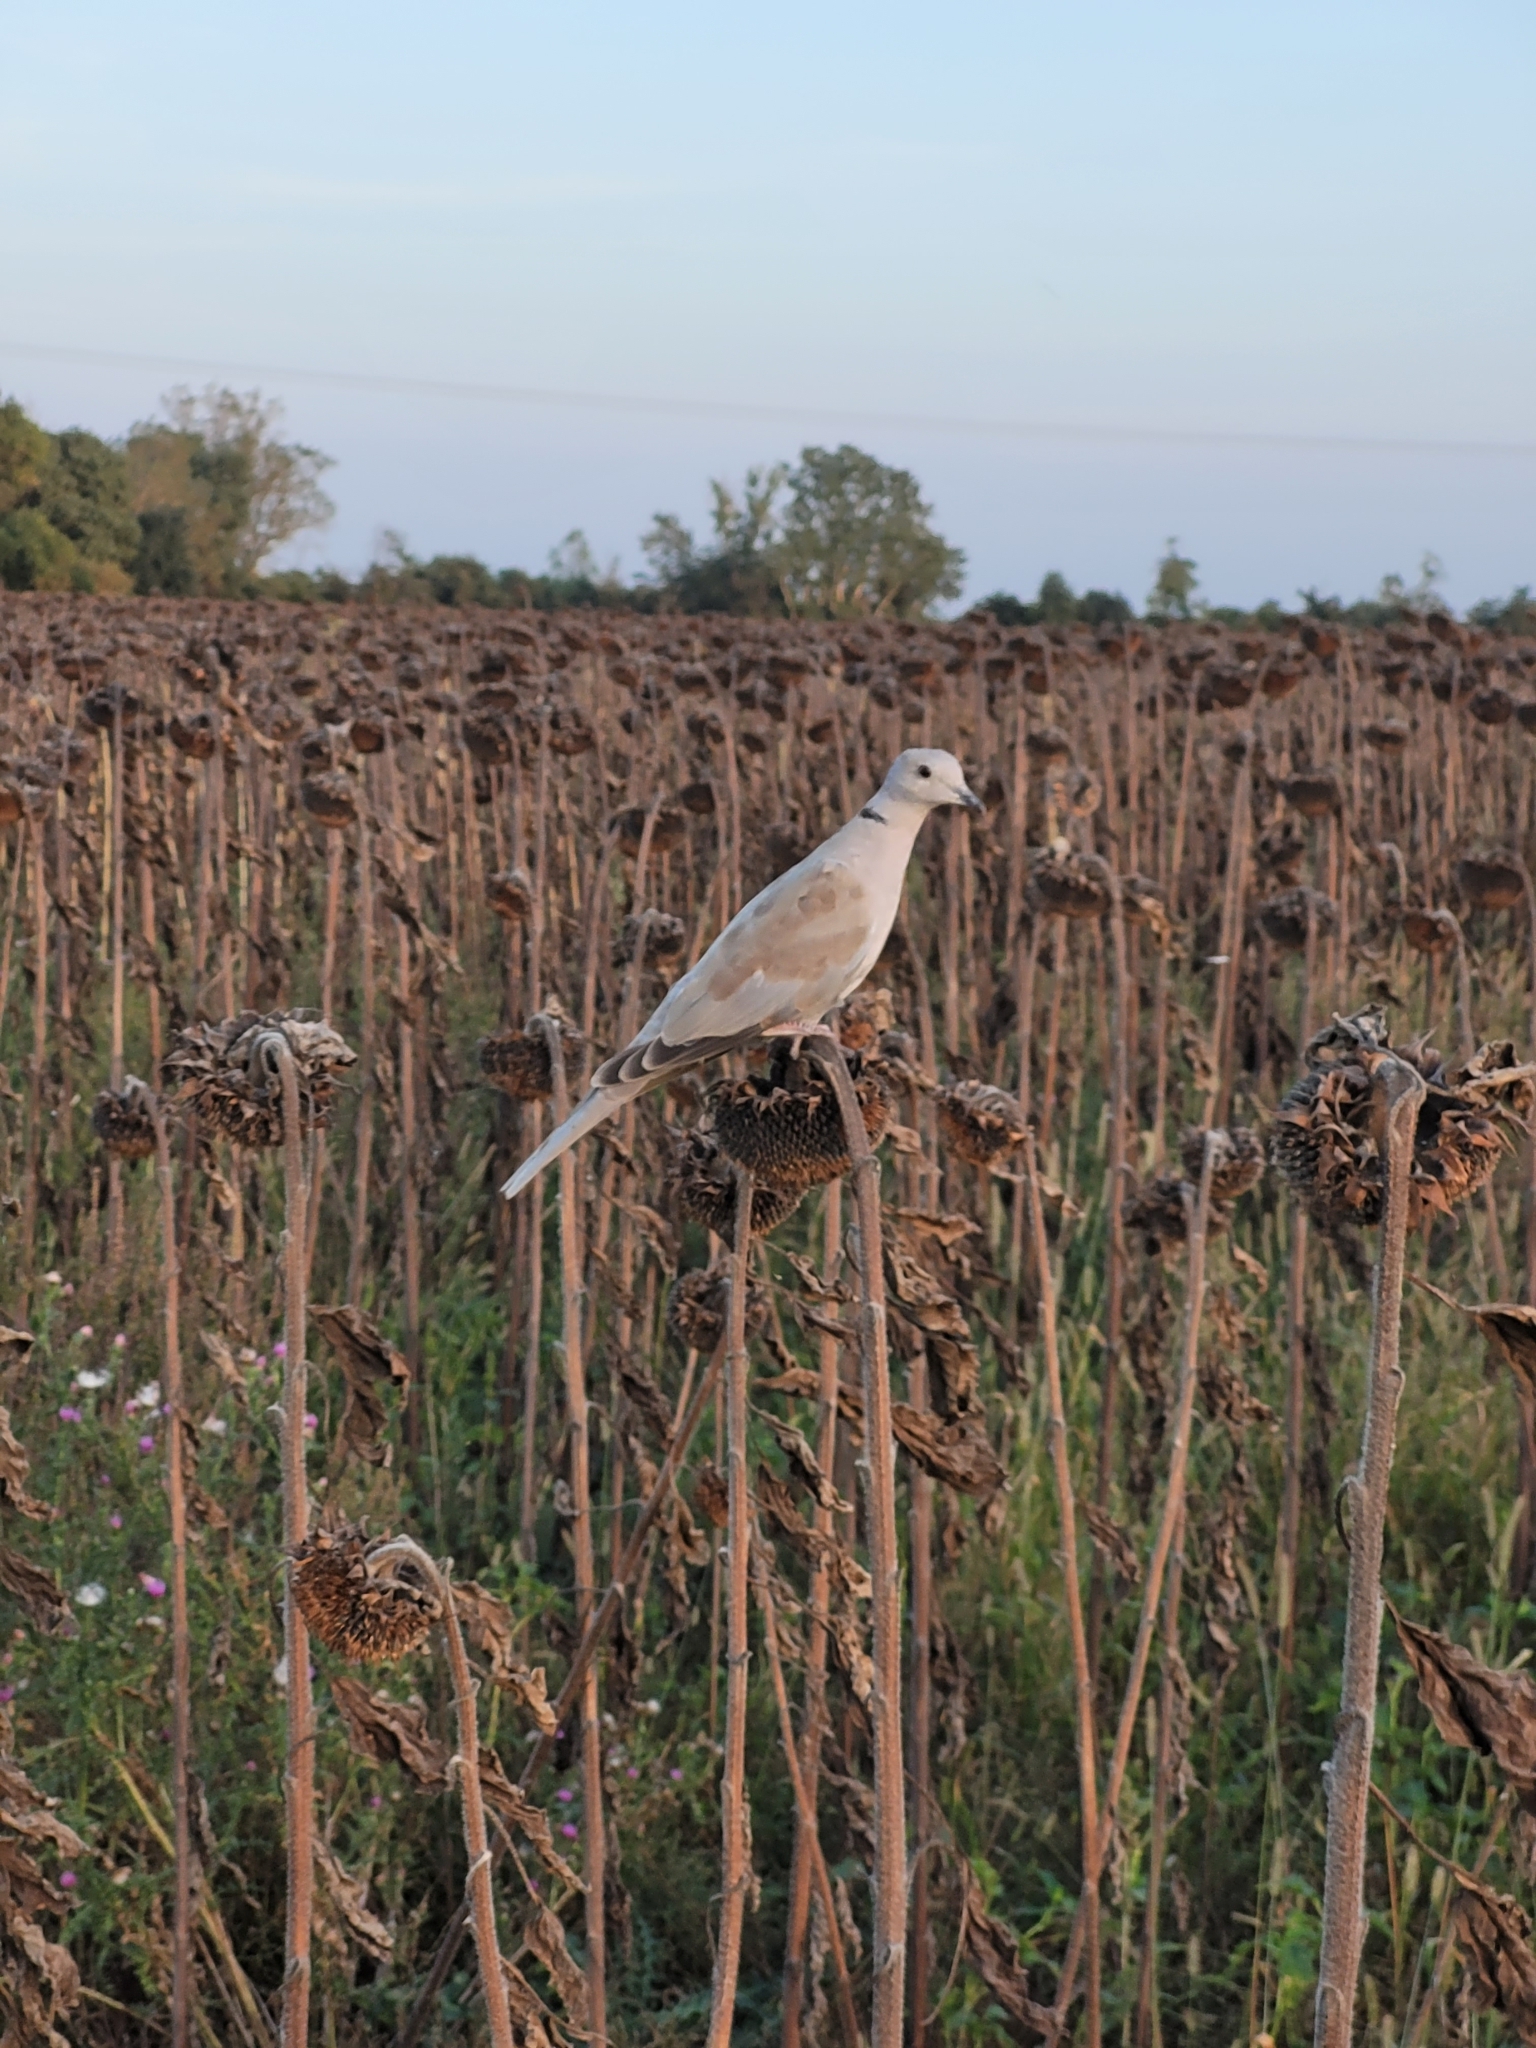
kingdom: Animalia
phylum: Chordata
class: Aves
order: Columbiformes
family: Columbidae
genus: Streptopelia
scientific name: Streptopelia decaocto
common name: Eurasian collared dove
